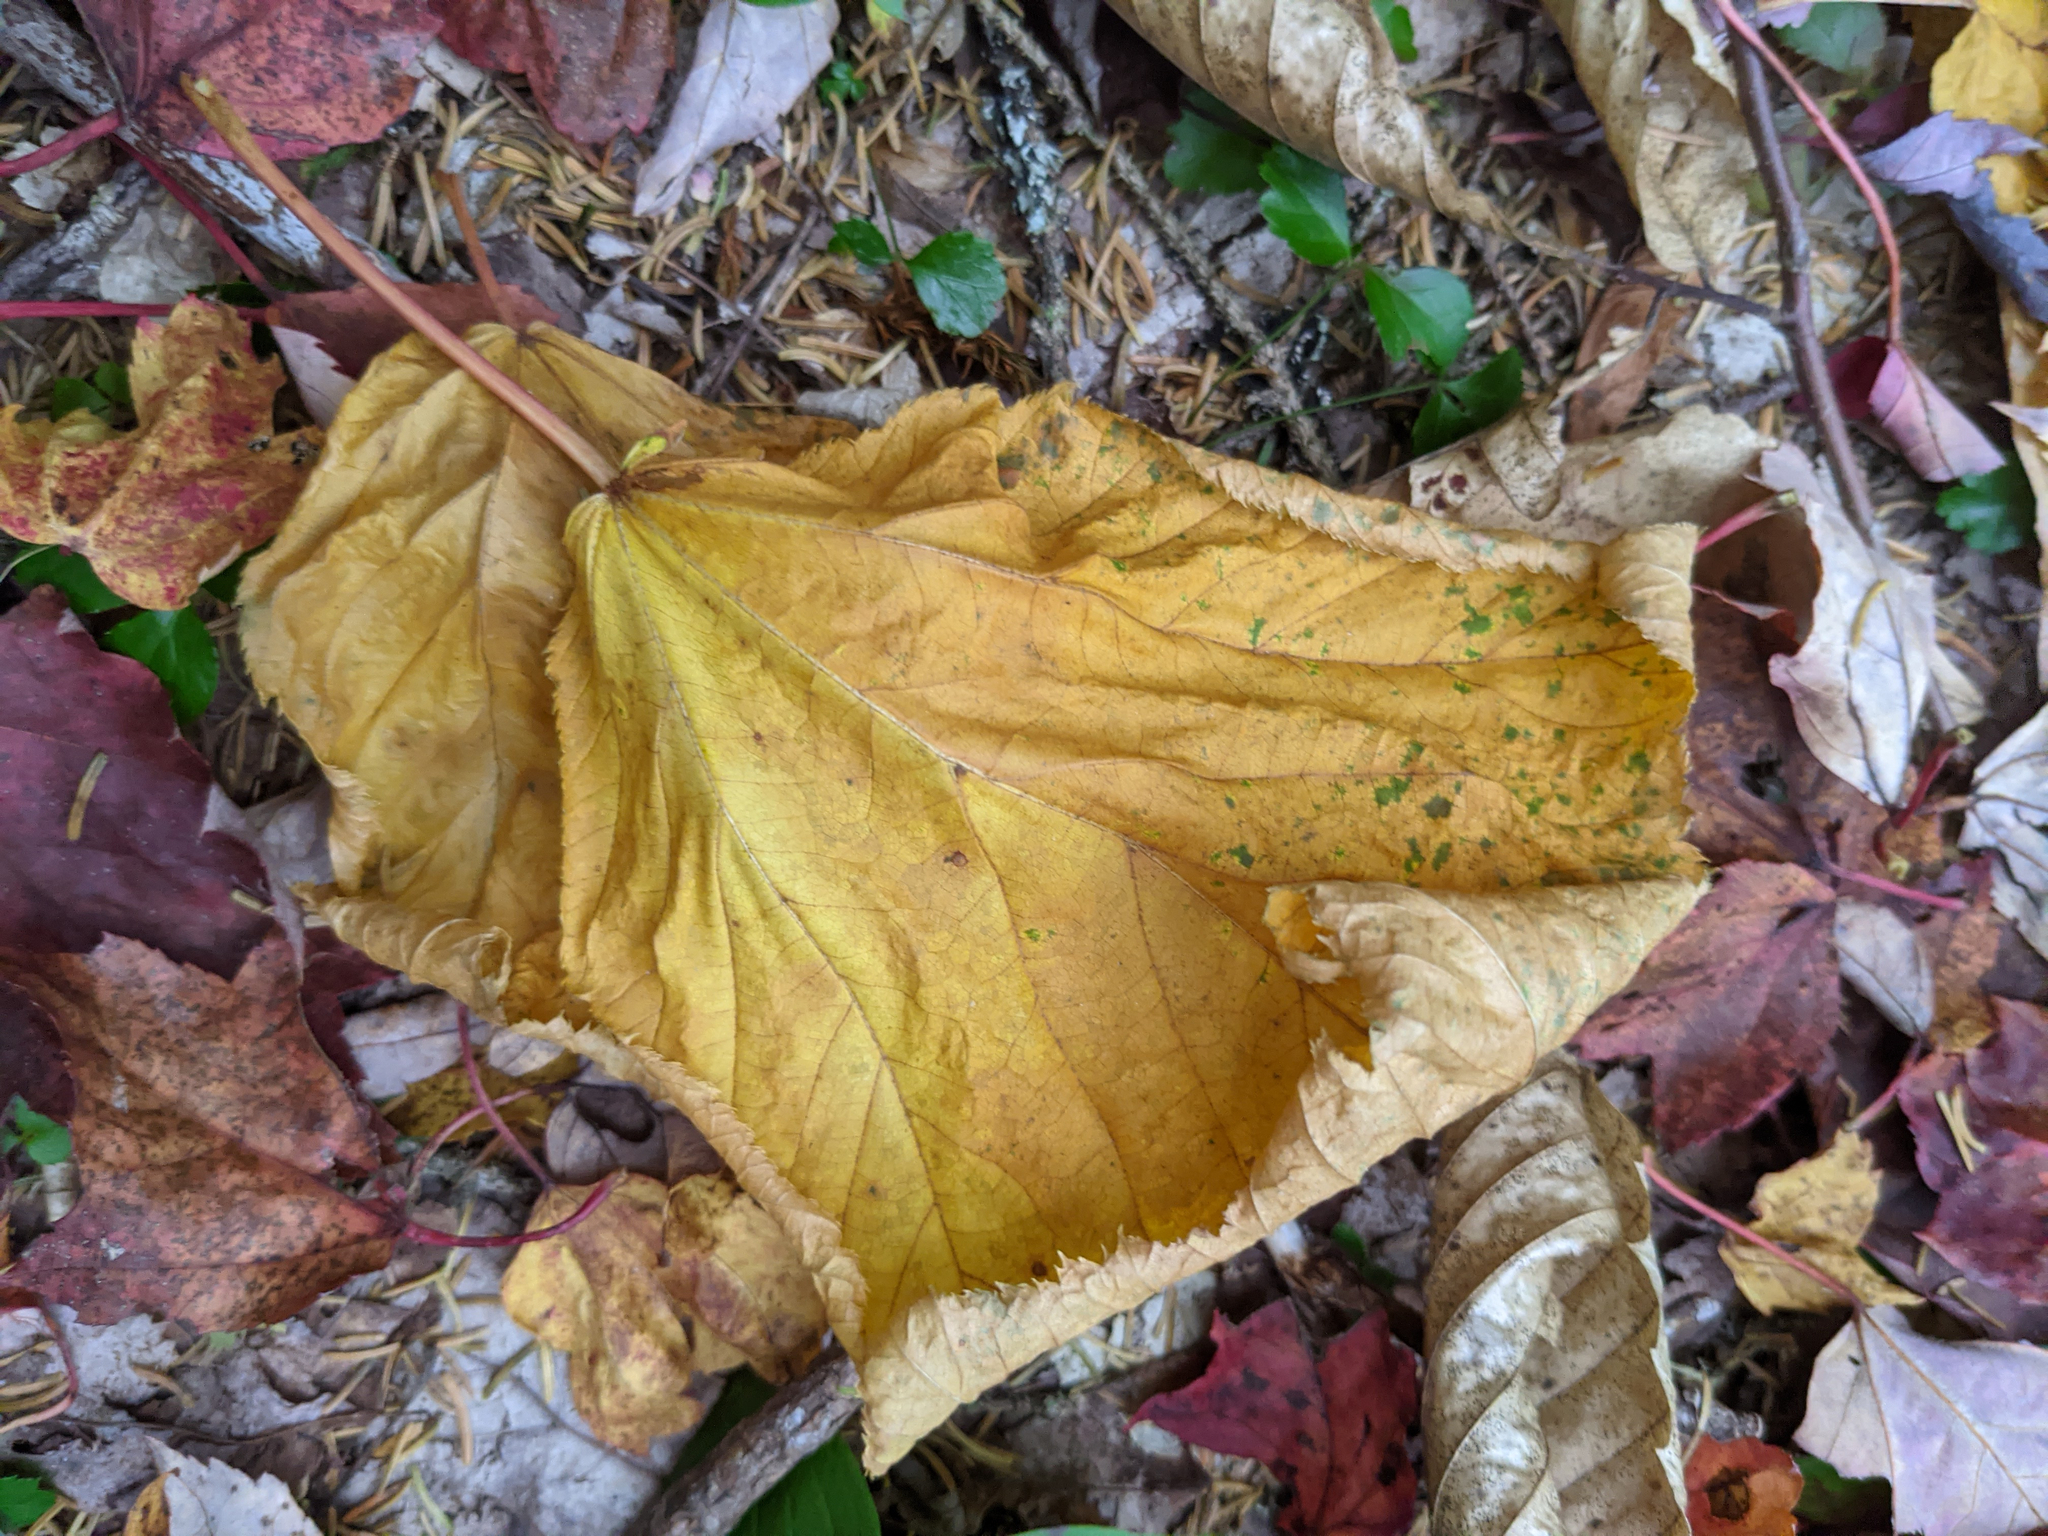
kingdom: Plantae
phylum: Tracheophyta
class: Magnoliopsida
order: Sapindales
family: Sapindaceae
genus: Acer
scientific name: Acer pensylvanicum
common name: Moosewood
